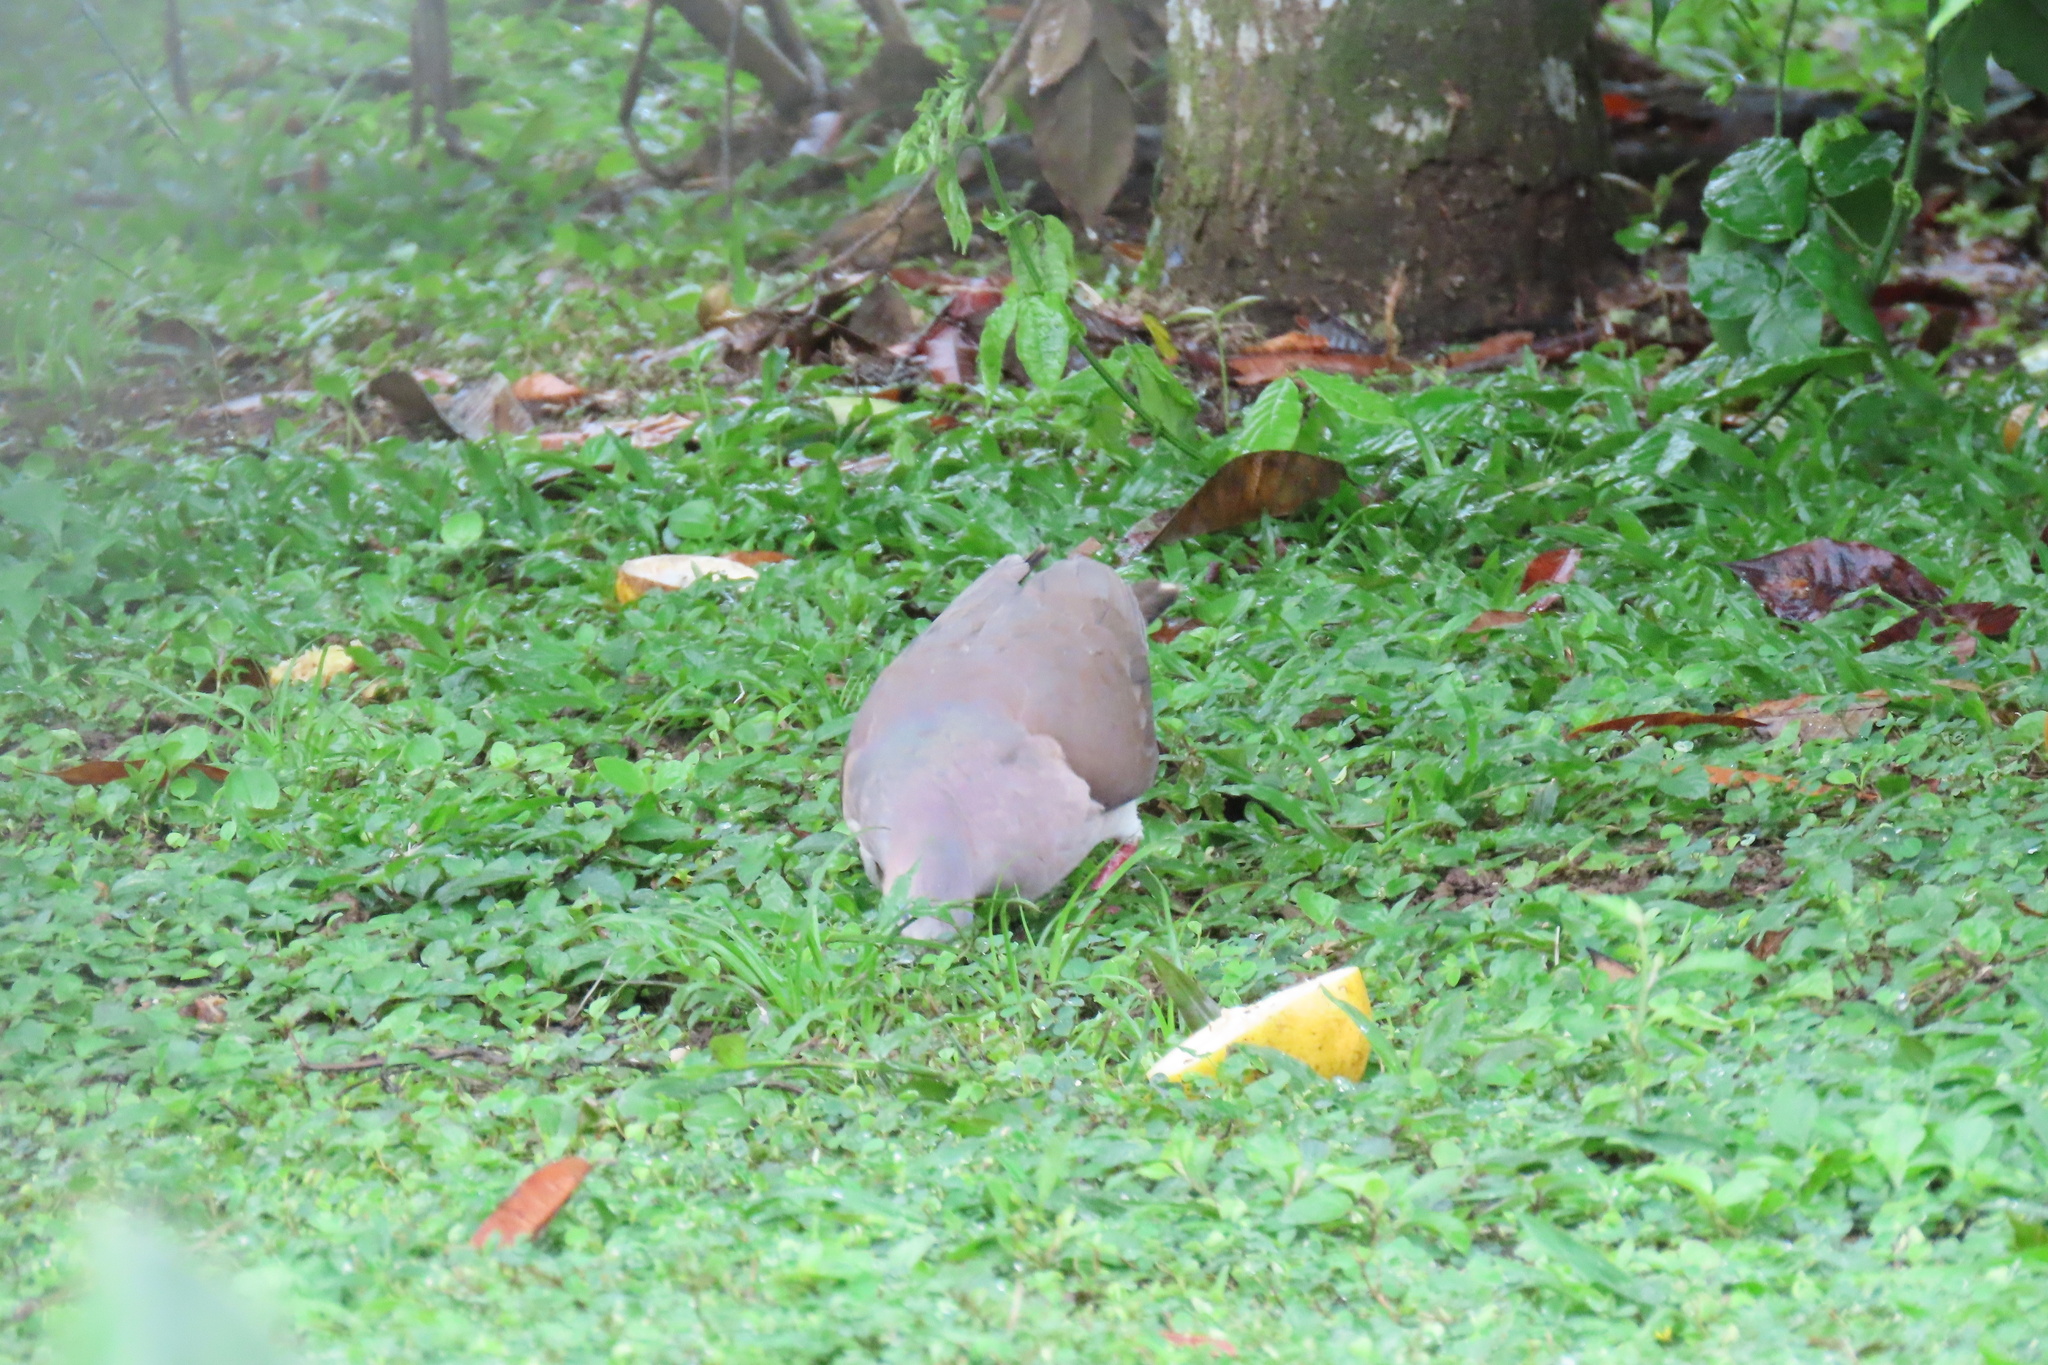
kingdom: Animalia
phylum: Chordata
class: Aves
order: Columbiformes
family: Columbidae
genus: Leptotila
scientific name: Leptotila verreauxi
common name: White-tipped dove
